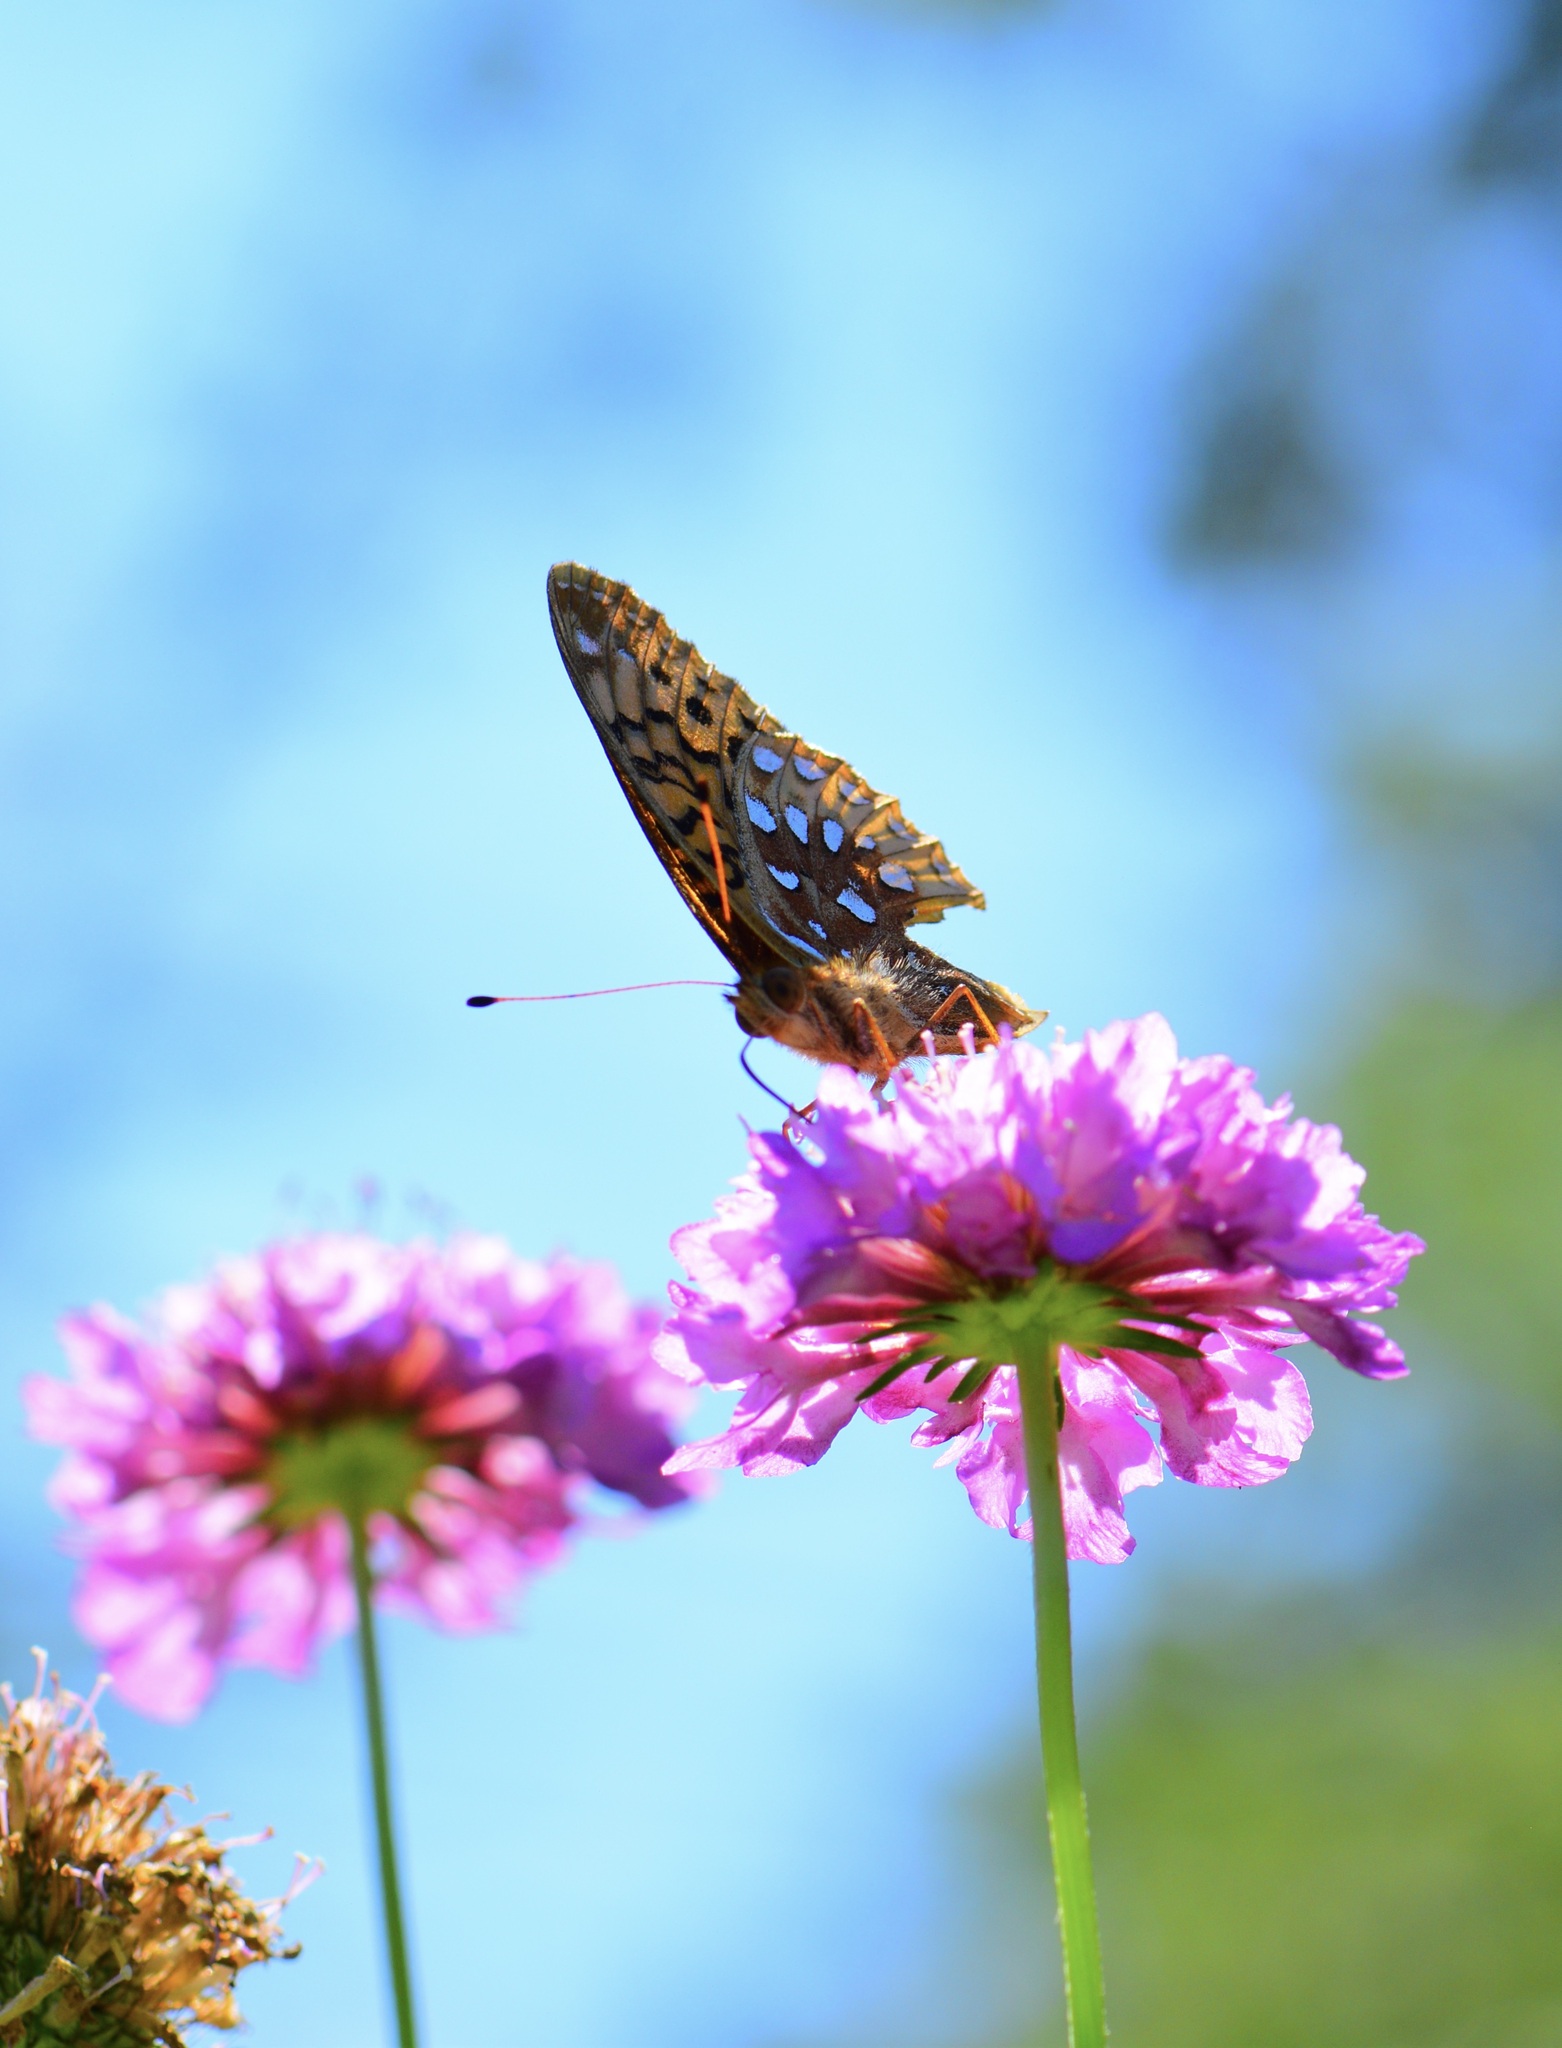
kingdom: Animalia
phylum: Arthropoda
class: Insecta
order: Lepidoptera
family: Nymphalidae
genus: Speyeria
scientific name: Speyeria cybele
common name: Great spangled fritillary
